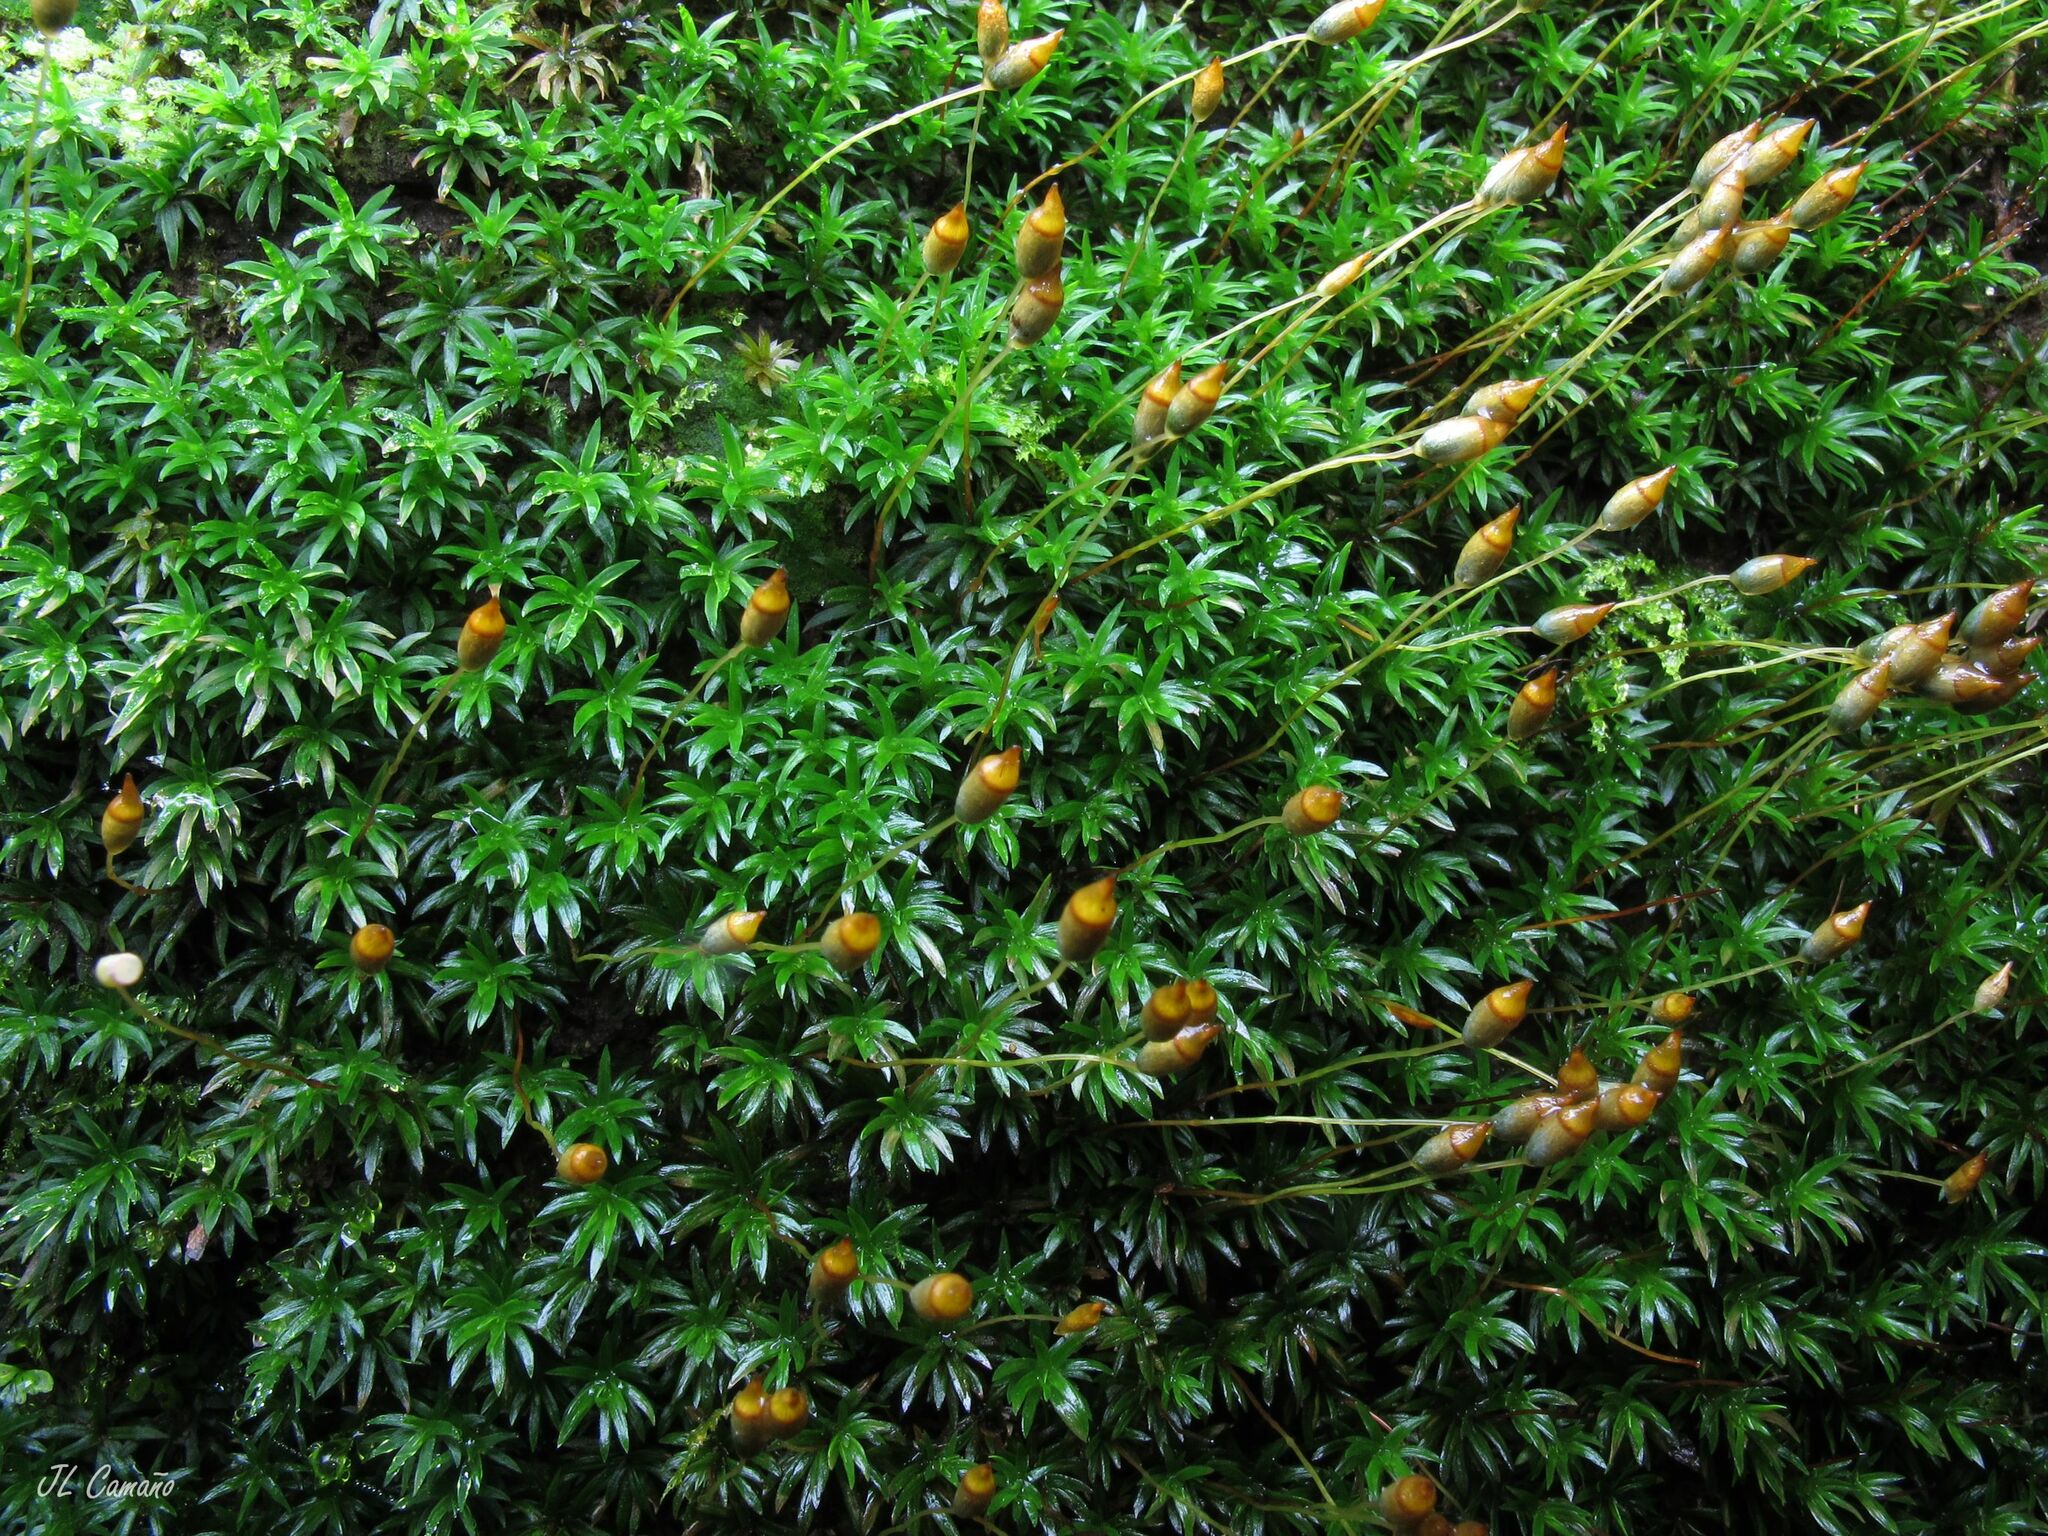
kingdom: Plantae
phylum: Bryophyta
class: Polytrichopsida
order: Polytrichales
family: Polytrichaceae
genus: Pogonatum
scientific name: Pogonatum aloides
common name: Aloe haircap
